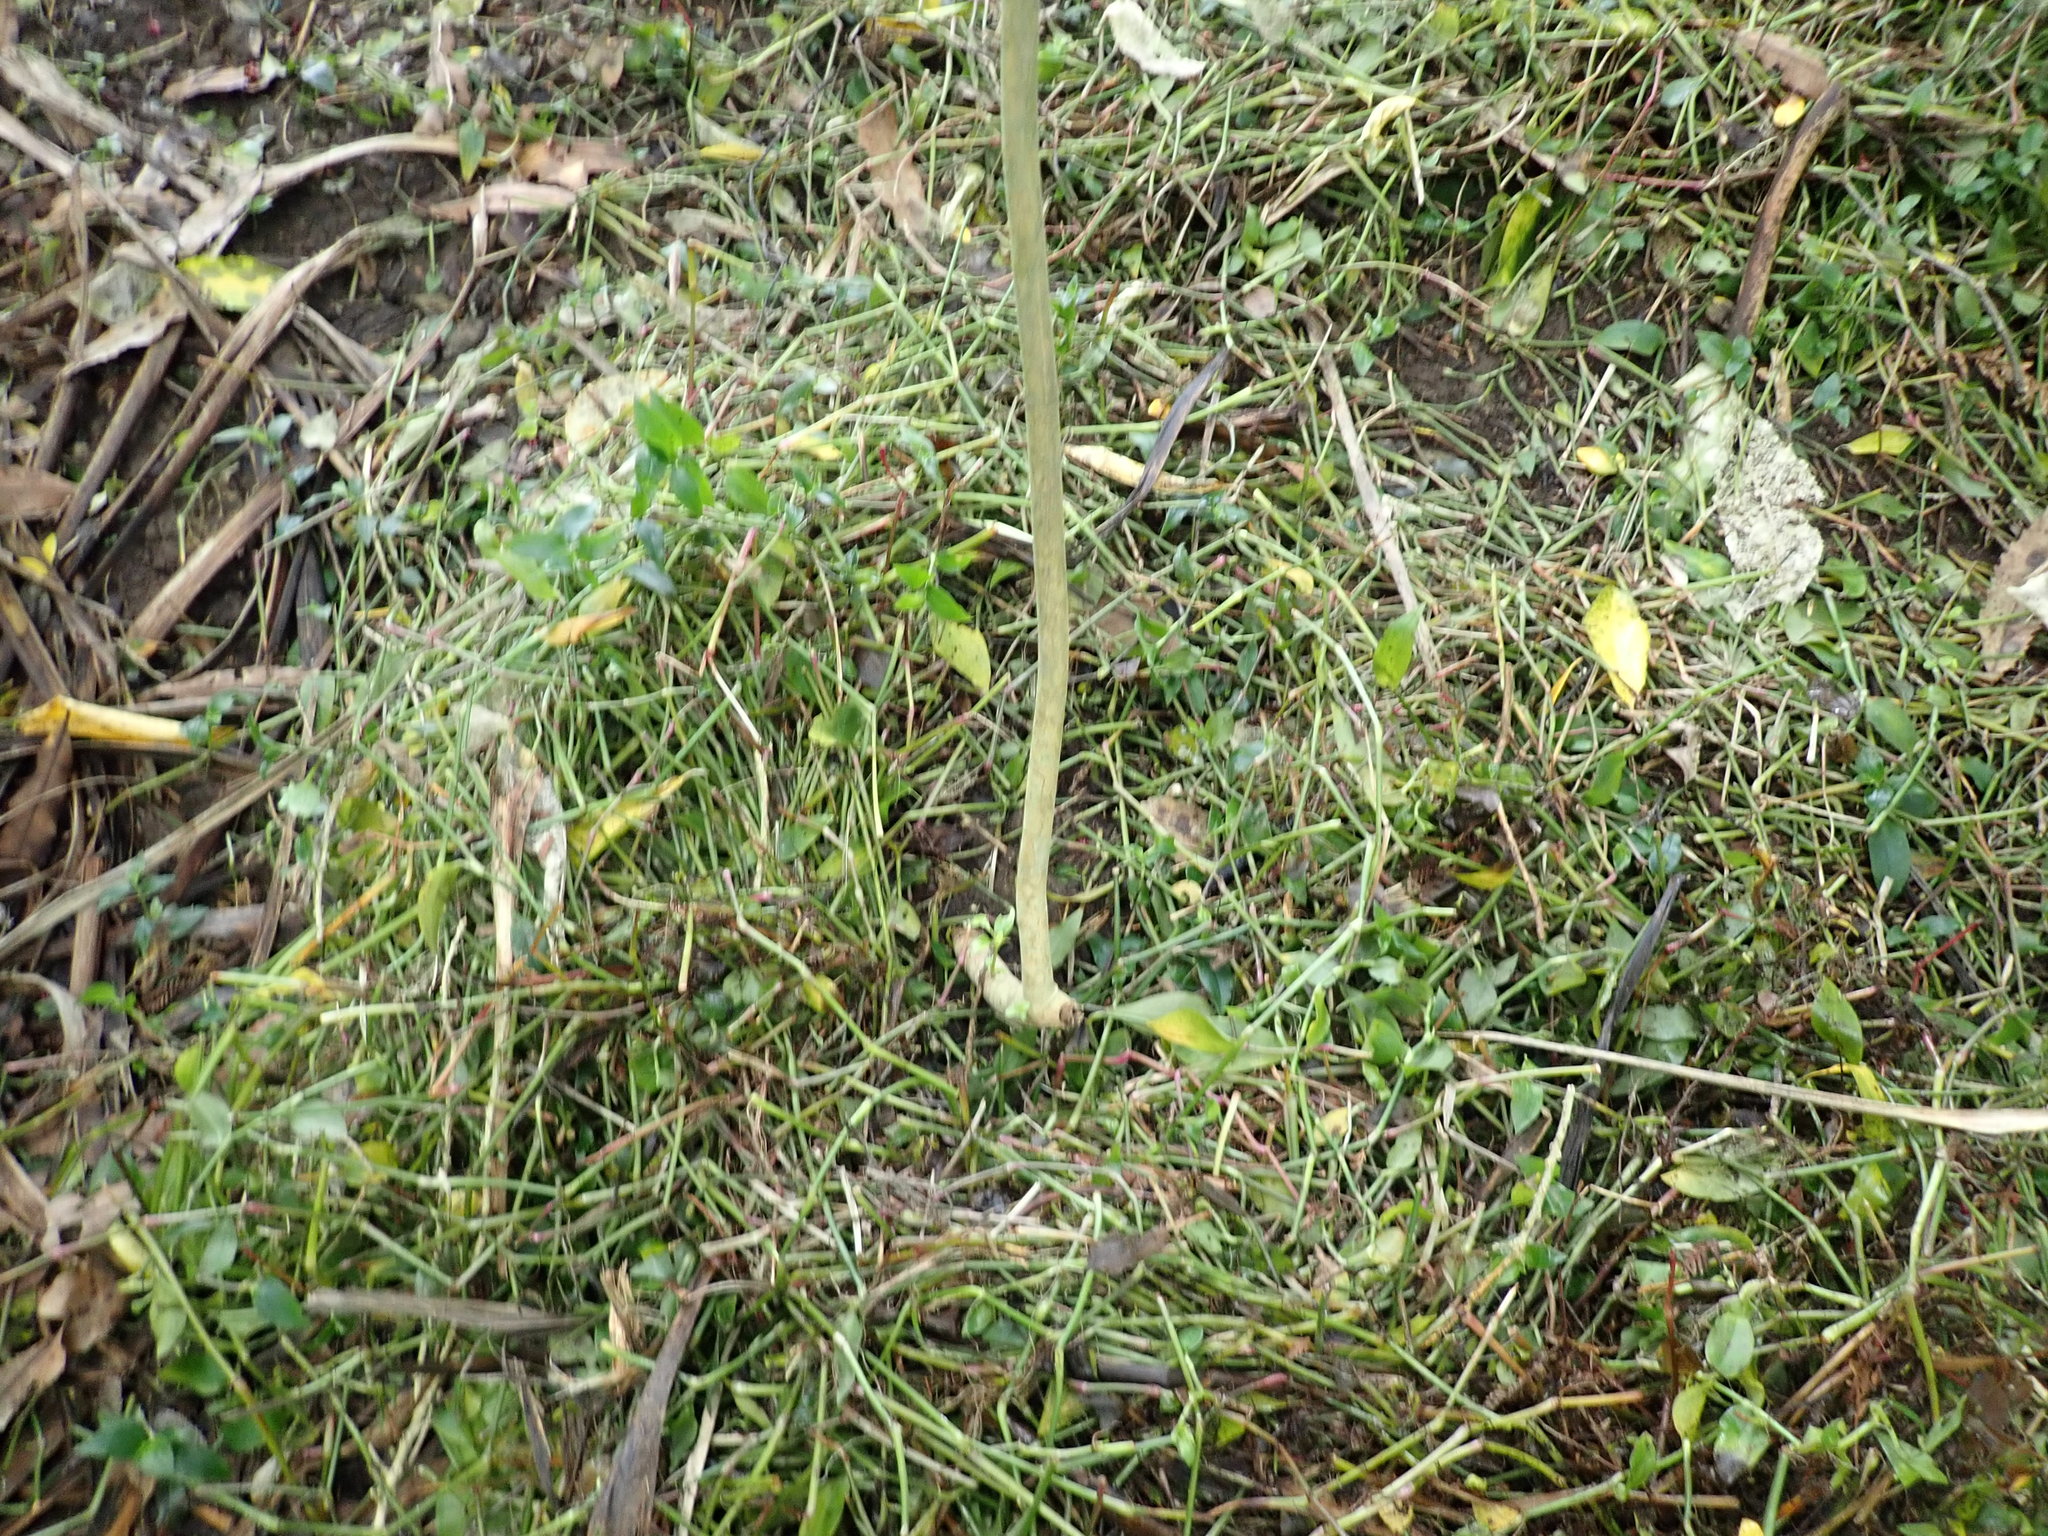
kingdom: Plantae
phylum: Tracheophyta
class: Liliopsida
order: Commelinales
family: Commelinaceae
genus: Tradescantia
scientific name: Tradescantia fluminensis
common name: Wandering-jew
